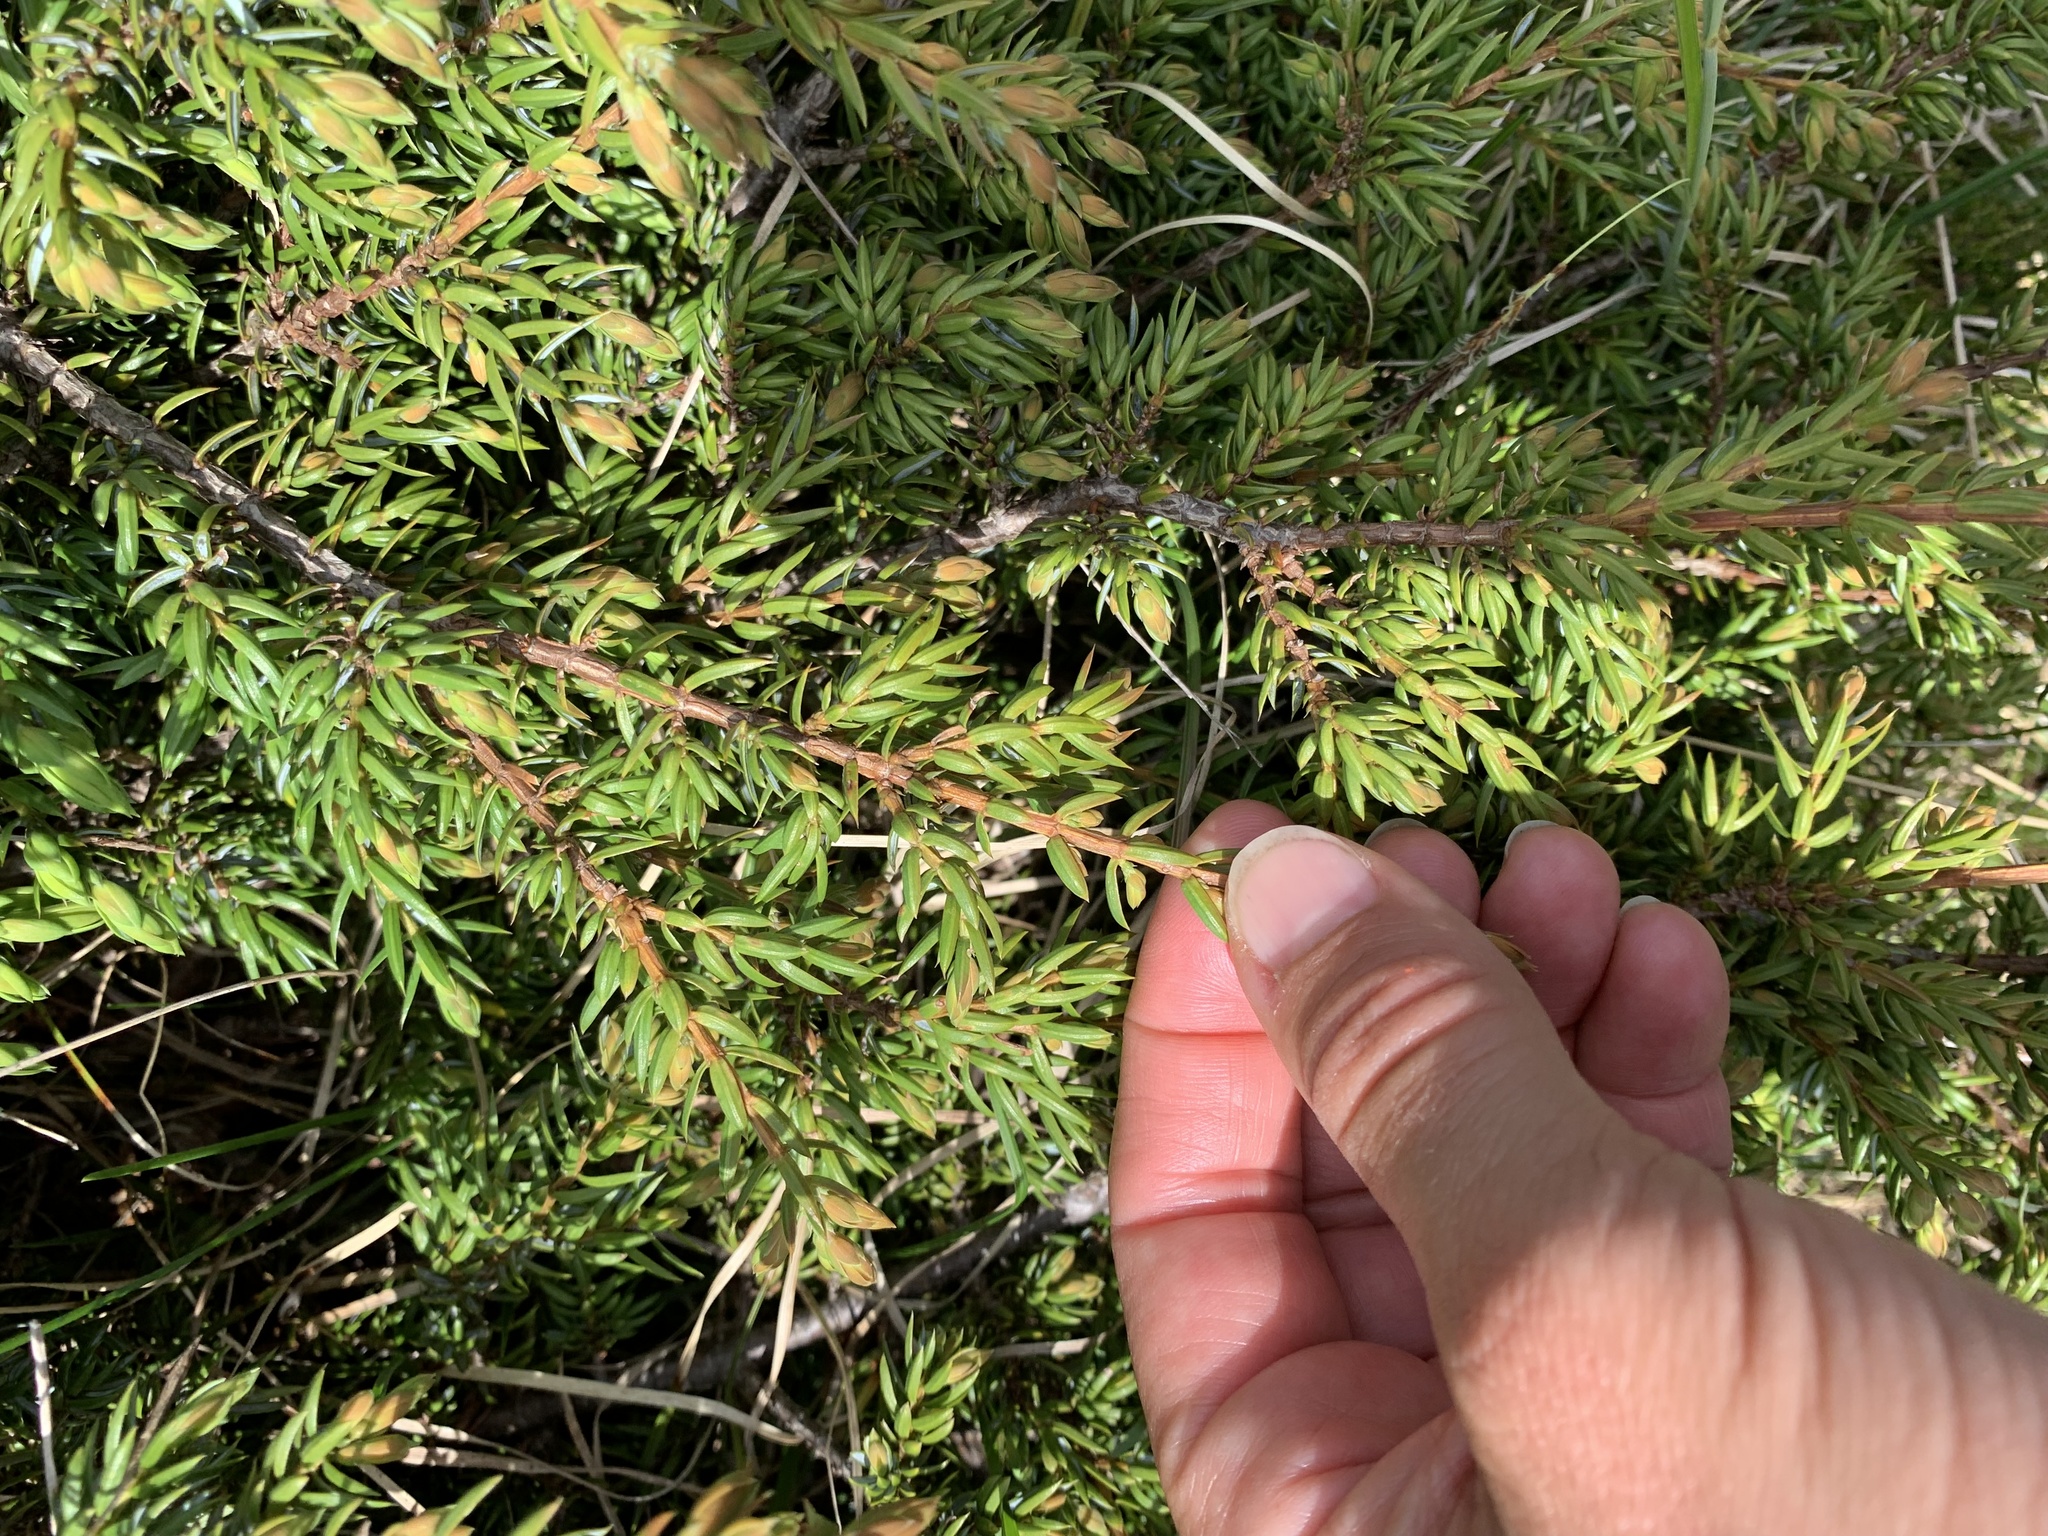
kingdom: Plantae
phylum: Tracheophyta
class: Pinopsida
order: Pinales
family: Cupressaceae
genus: Juniperus
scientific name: Juniperus communis
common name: Common juniper
